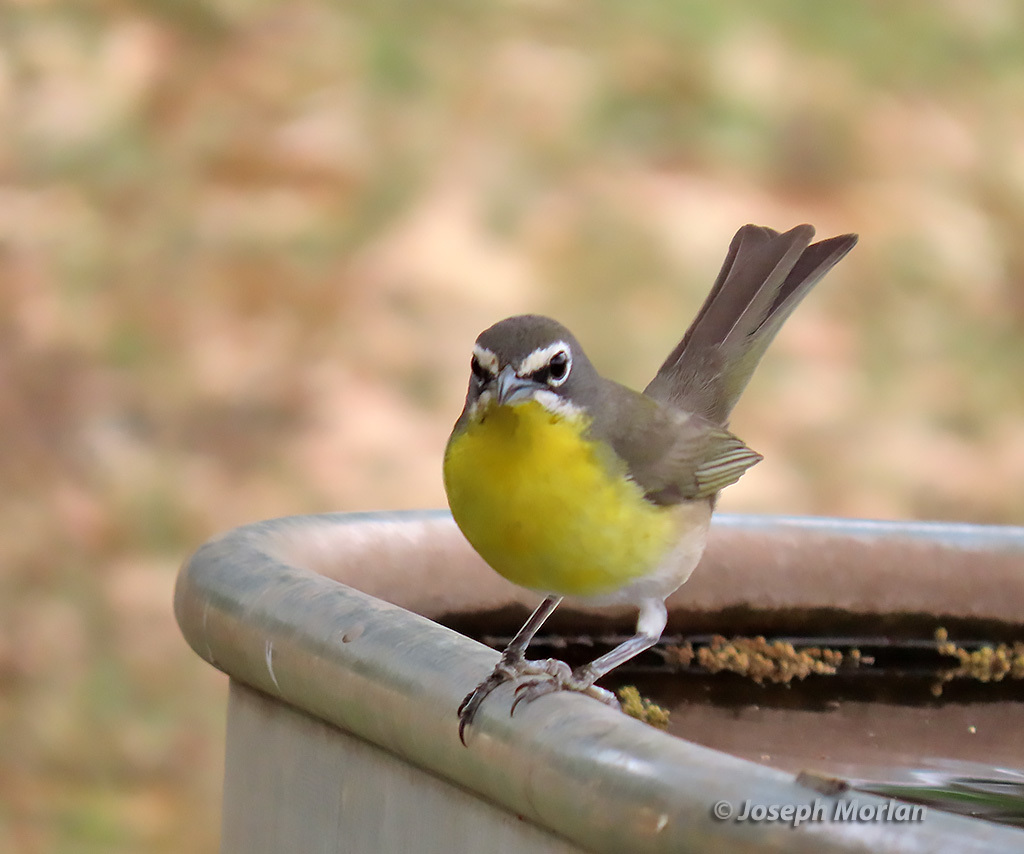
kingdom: Animalia
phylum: Chordata
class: Aves
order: Passeriformes
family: Parulidae
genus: Icteria
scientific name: Icteria virens
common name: Yellow-breasted chat
